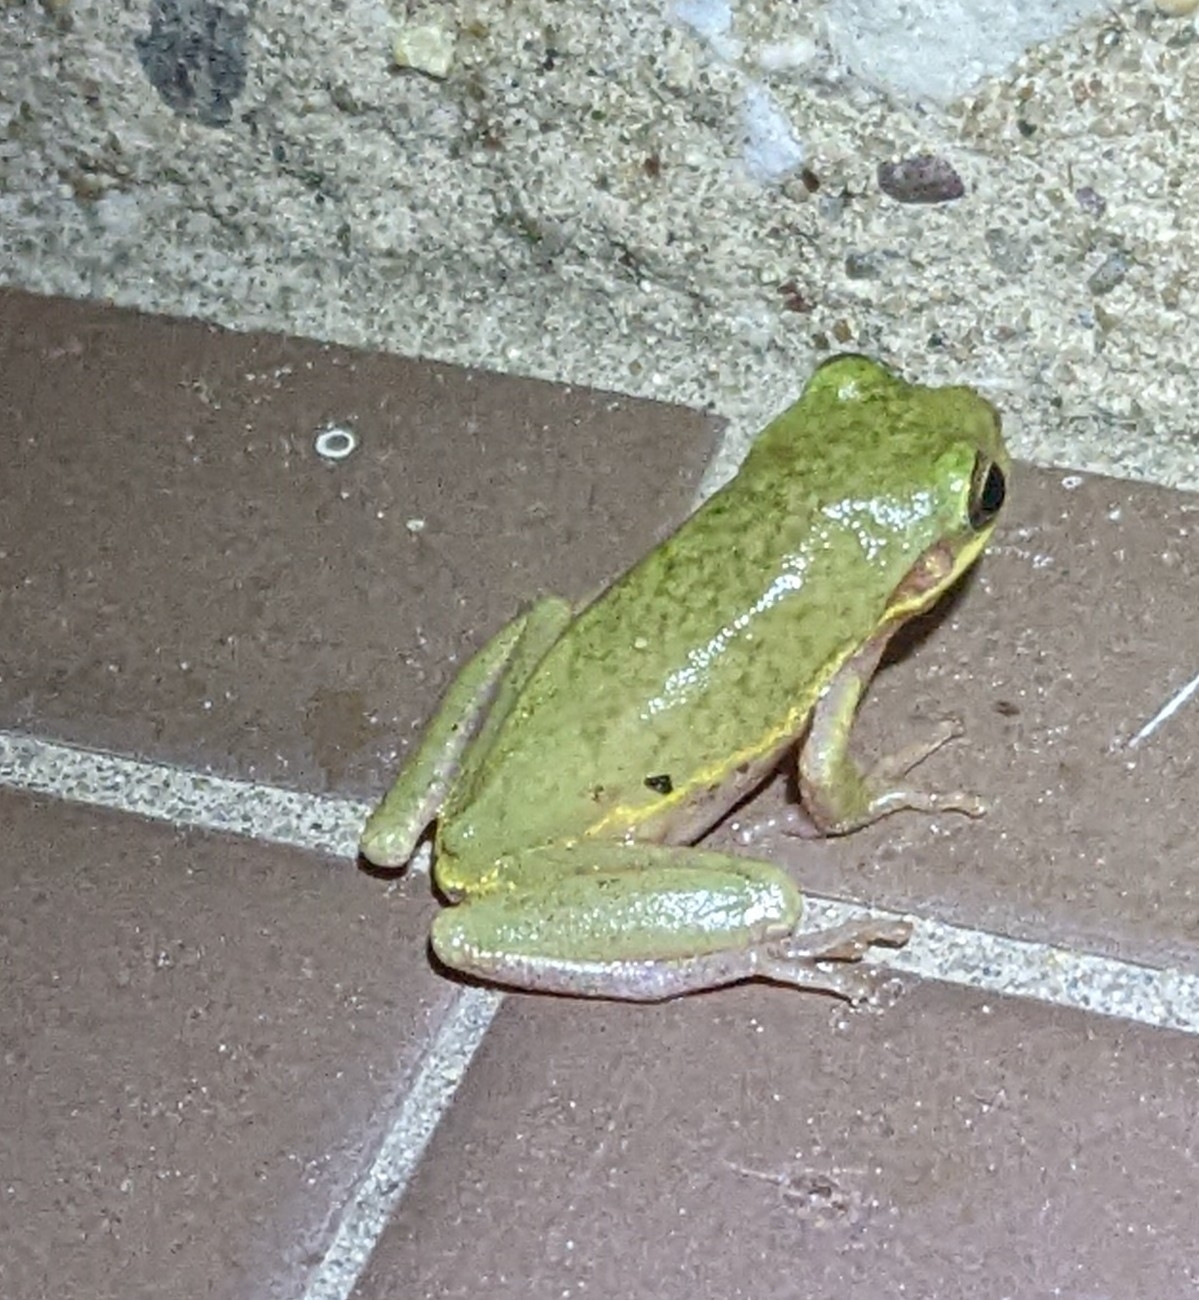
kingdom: Animalia
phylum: Chordata
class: Amphibia
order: Anura
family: Hylidae
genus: Dryophytes
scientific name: Dryophytes squirellus
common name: Squirrel treefrog
